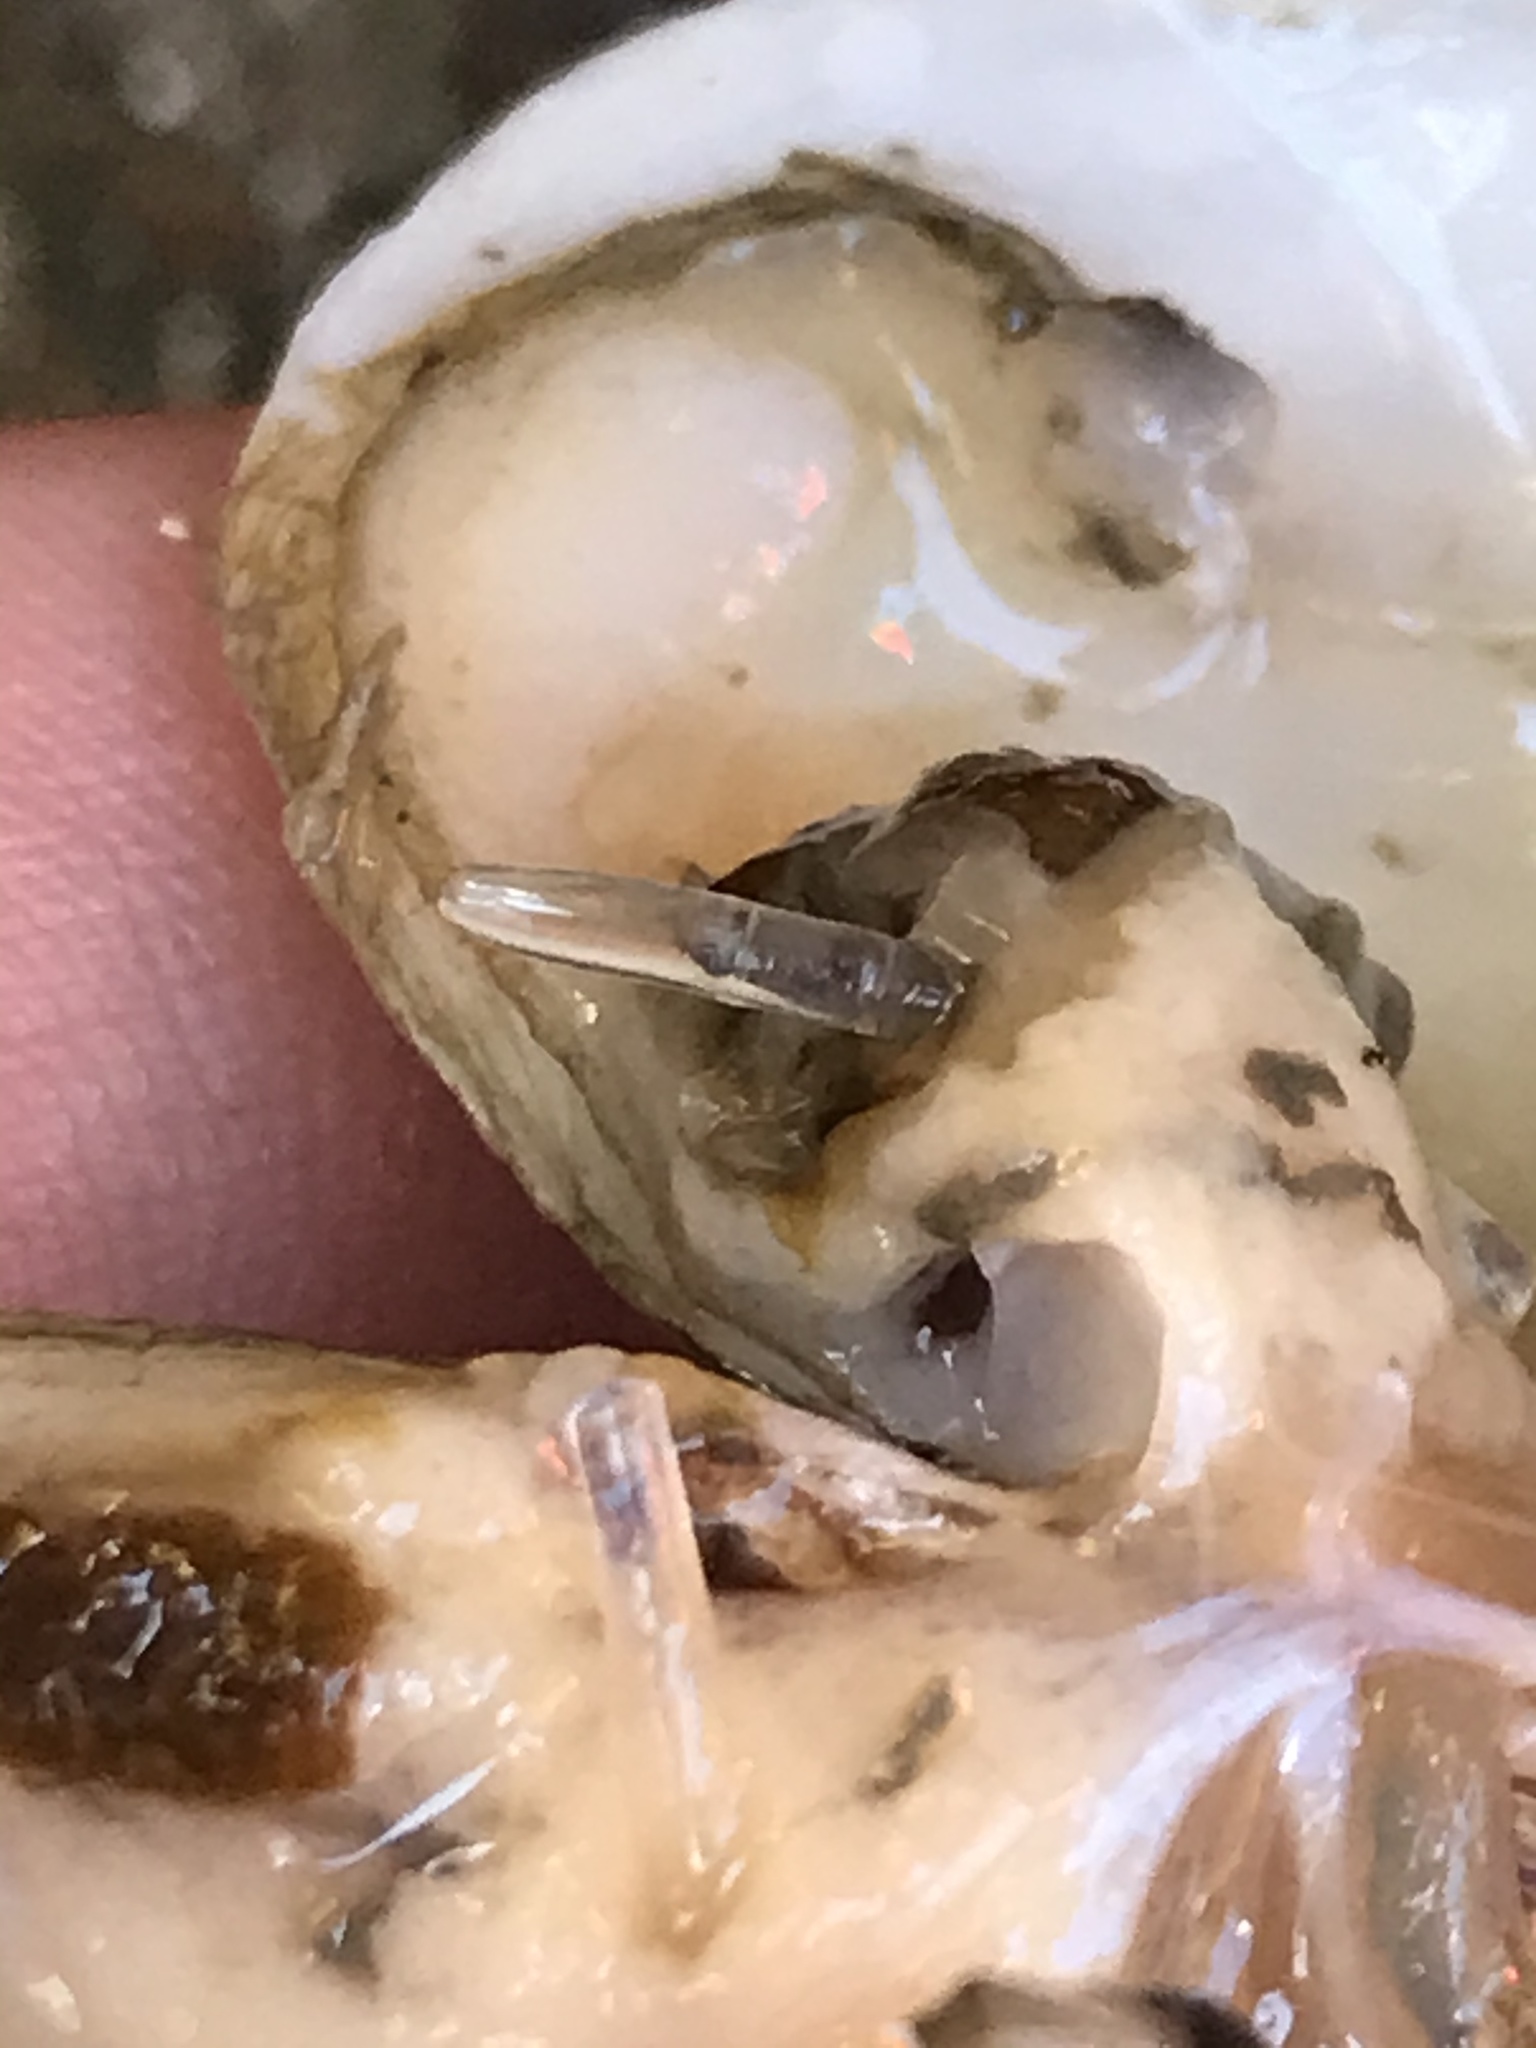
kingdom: Animalia
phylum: Mollusca
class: Bivalvia
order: Myida
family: Myidae
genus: Mya
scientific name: Mya arenaria
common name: Soft-shelled clam
